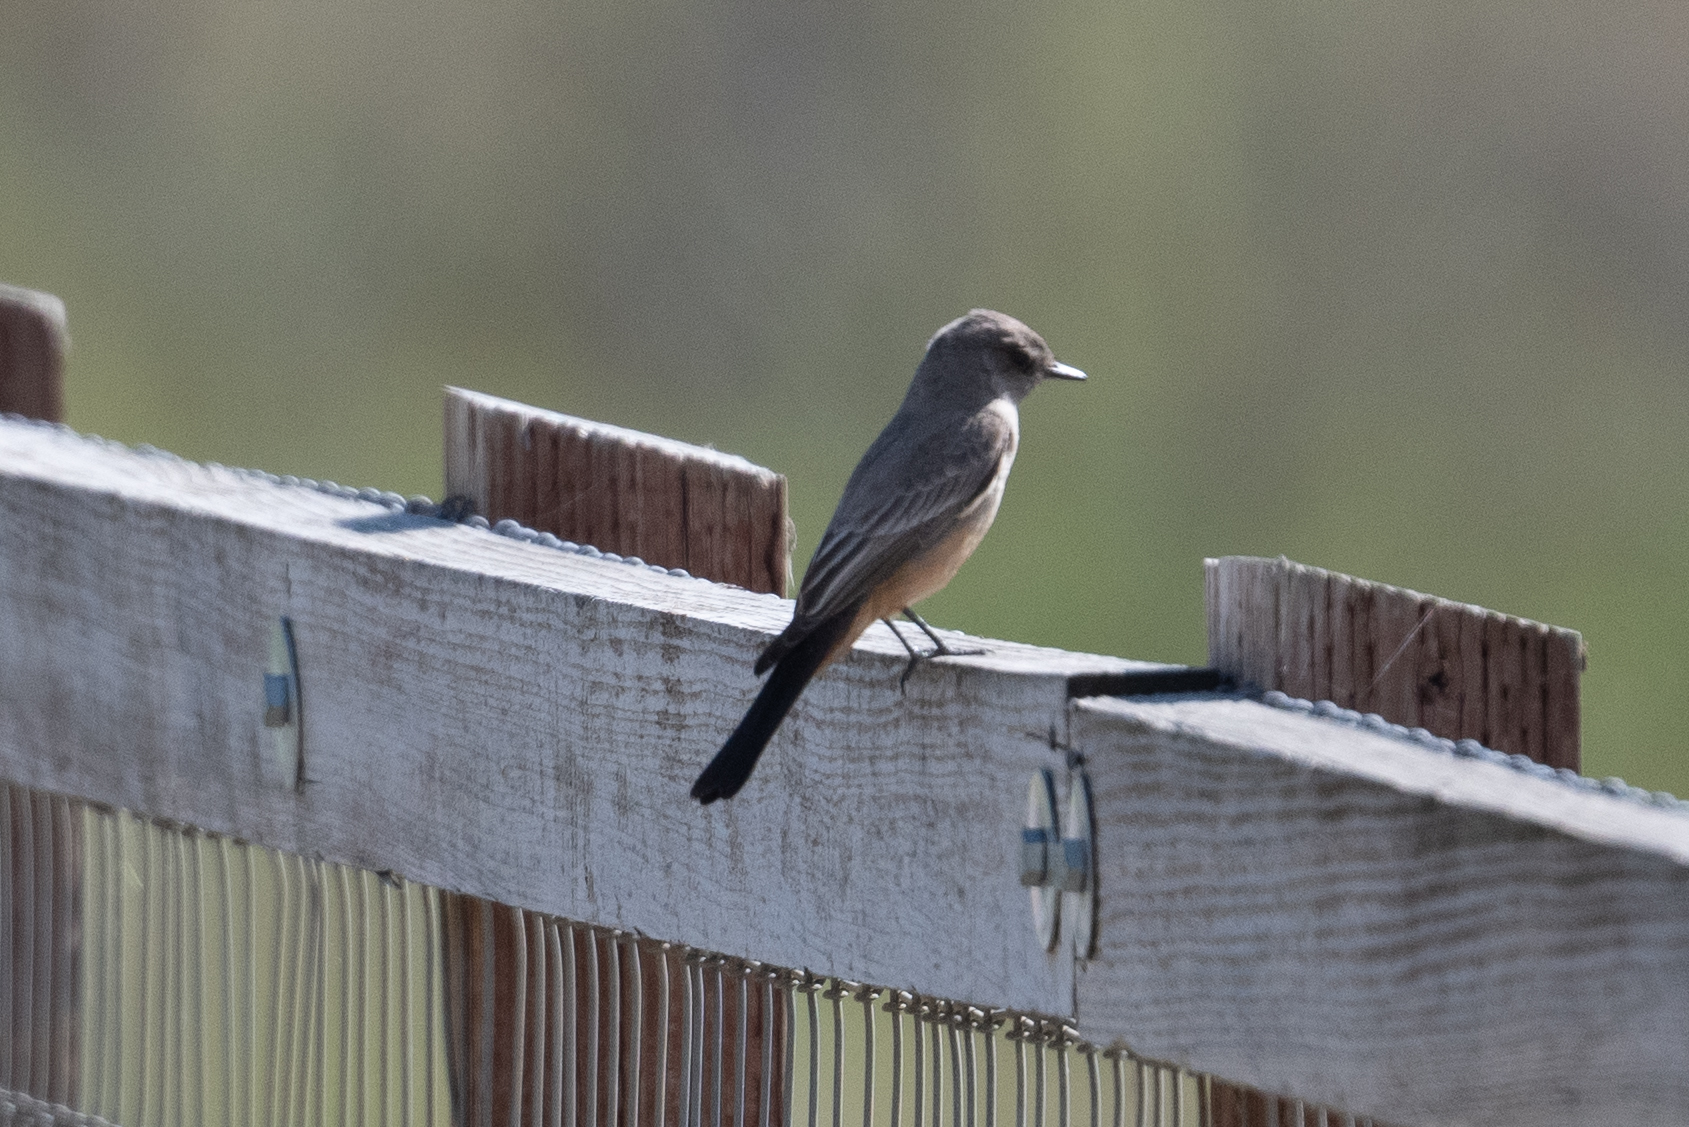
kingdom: Animalia
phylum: Chordata
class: Aves
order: Passeriformes
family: Tyrannidae
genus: Sayornis
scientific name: Sayornis saya
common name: Say's phoebe
